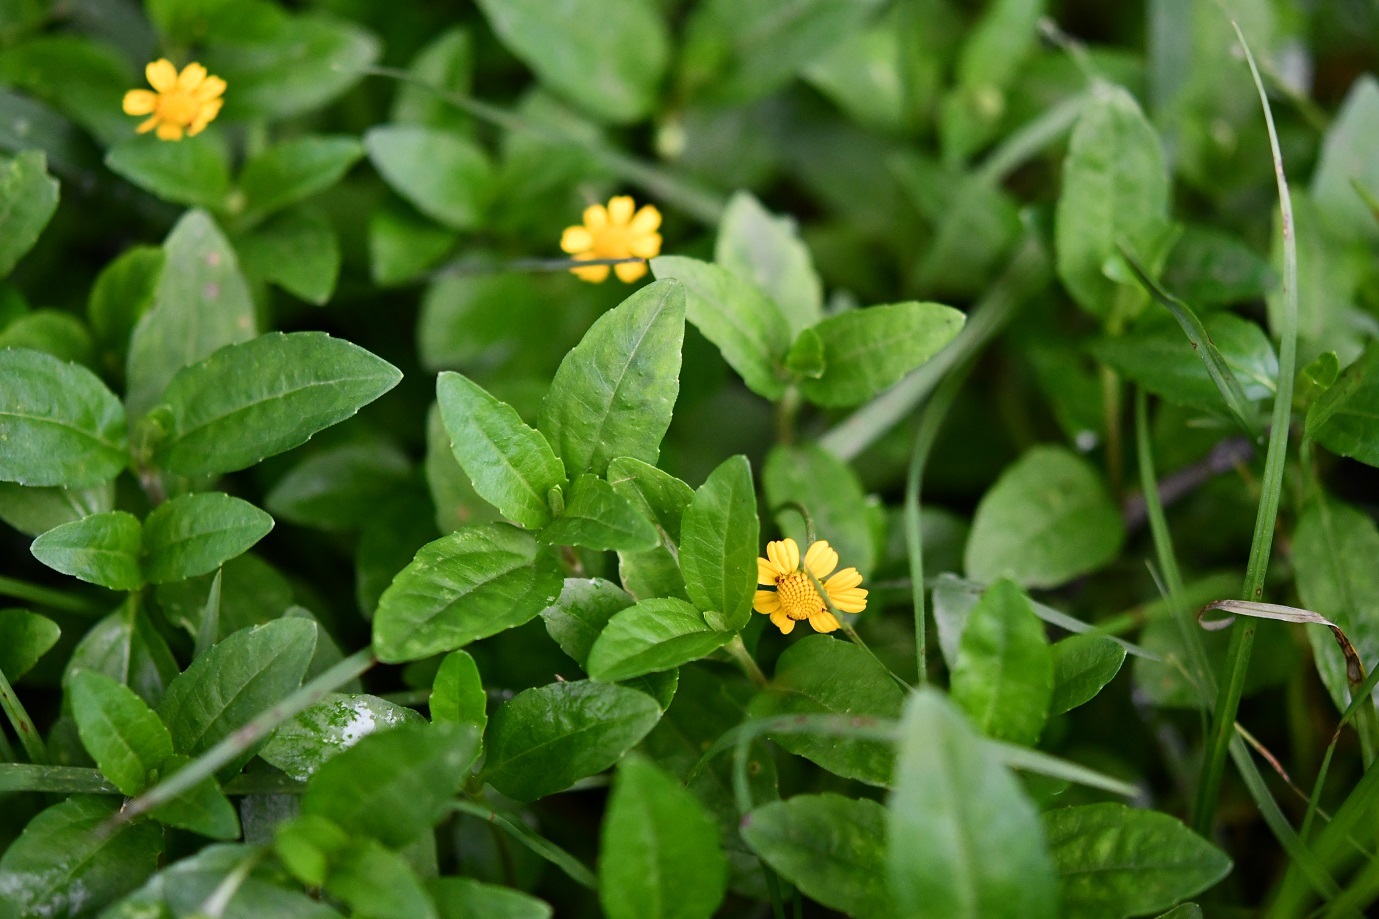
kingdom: Plantae
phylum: Tracheophyta
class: Magnoliopsida
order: Asterales
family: Asteraceae
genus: Acmella
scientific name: Acmella repens
